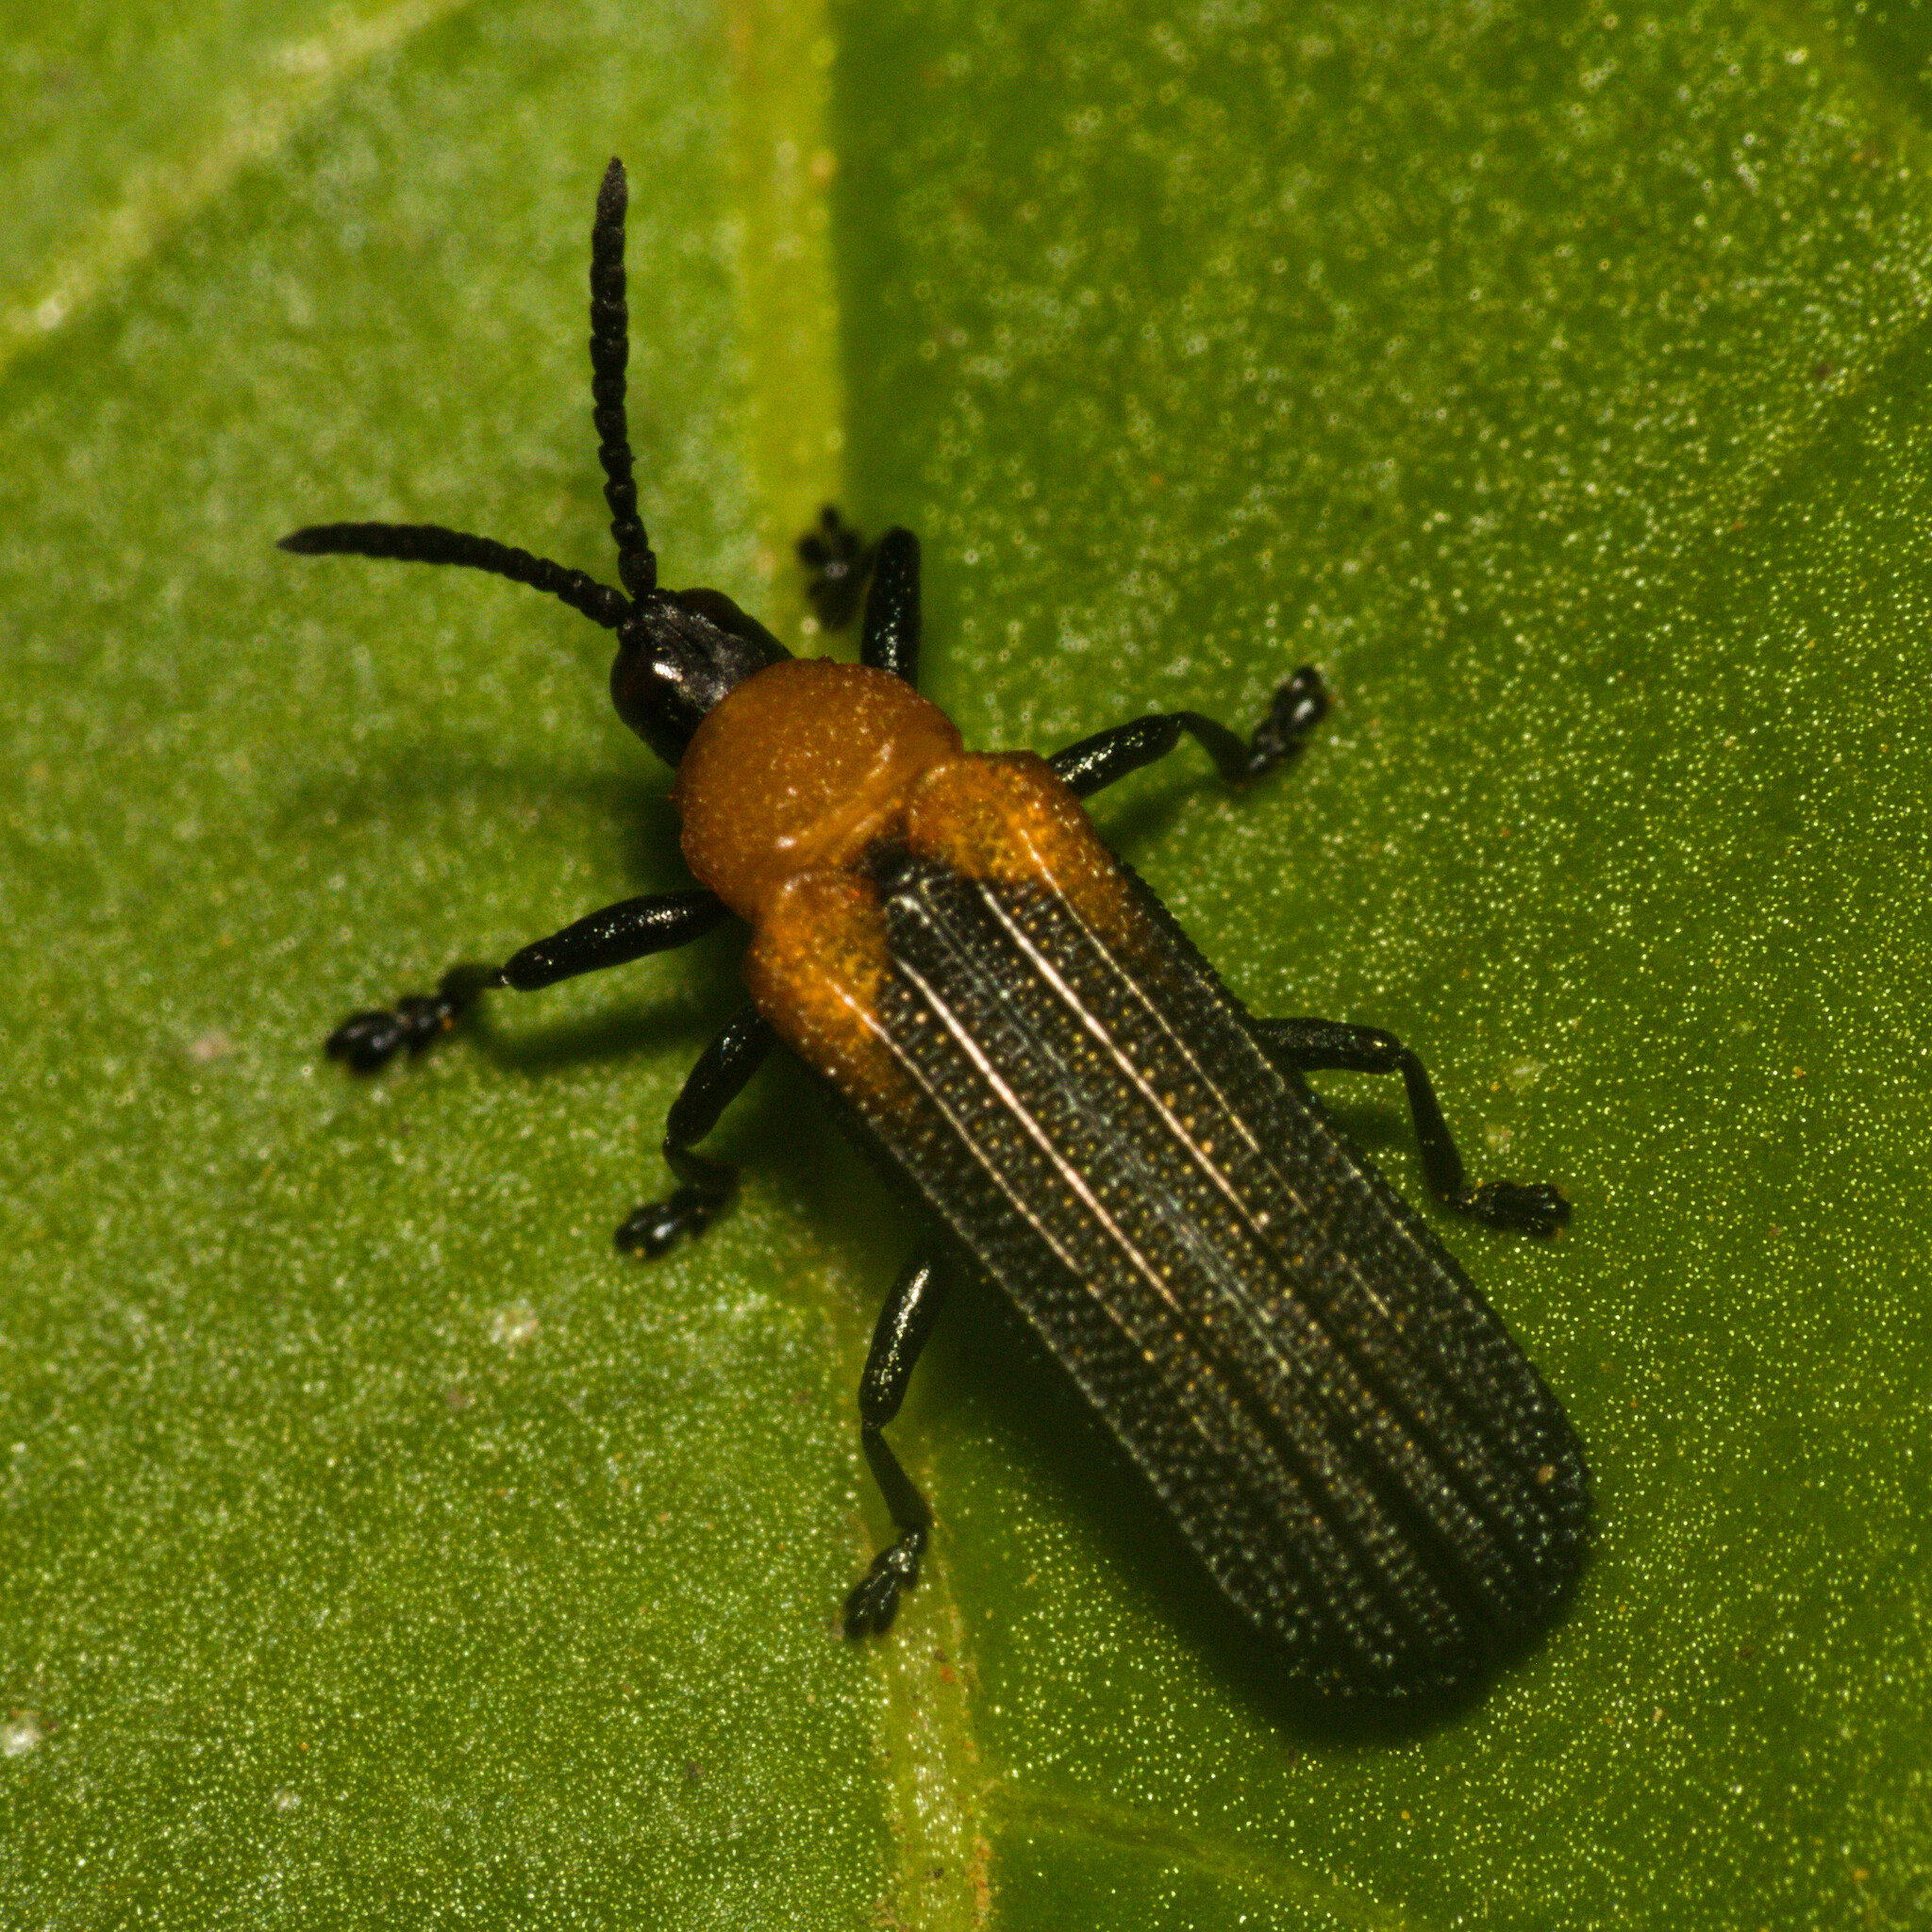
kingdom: Animalia
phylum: Arthropoda
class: Insecta
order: Coleoptera
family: Chrysomelidae
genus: Chalepus
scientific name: Chalepus aurantiacicollis
